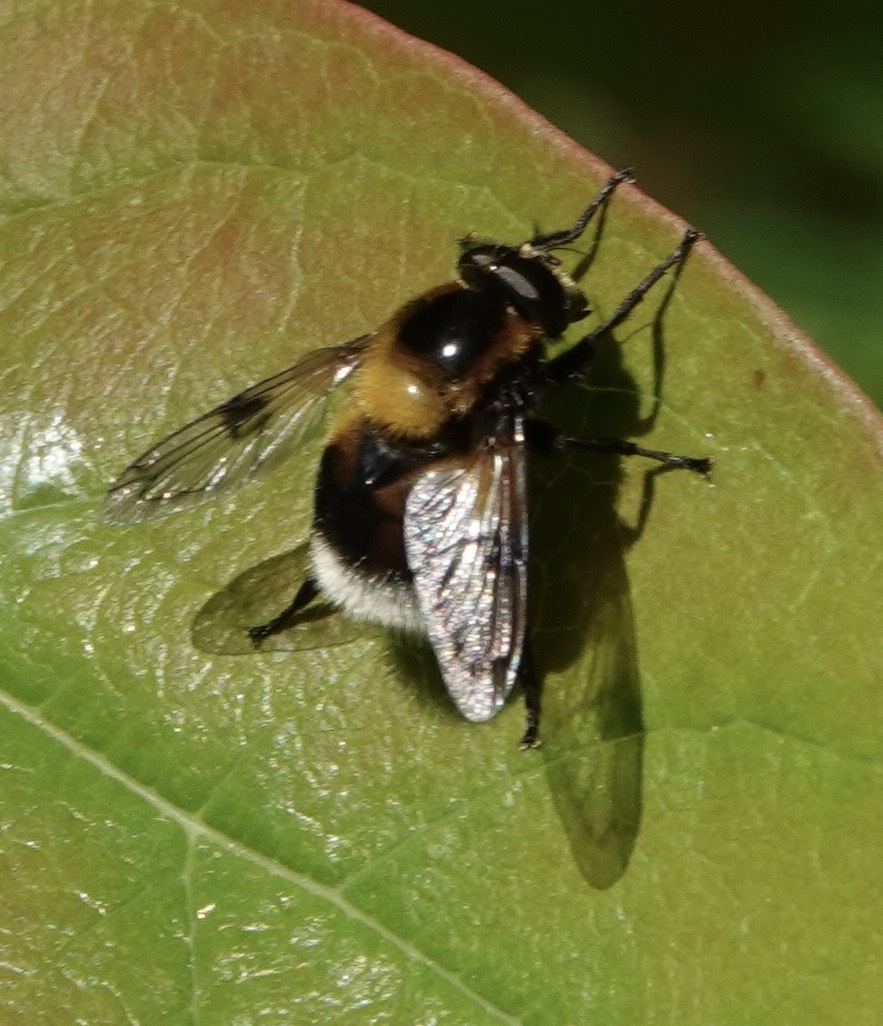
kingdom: Animalia
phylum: Arthropoda
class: Insecta
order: Diptera
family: Syrphidae
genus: Volucella
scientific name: Volucella bombylans
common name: Bumble bee hover fly
